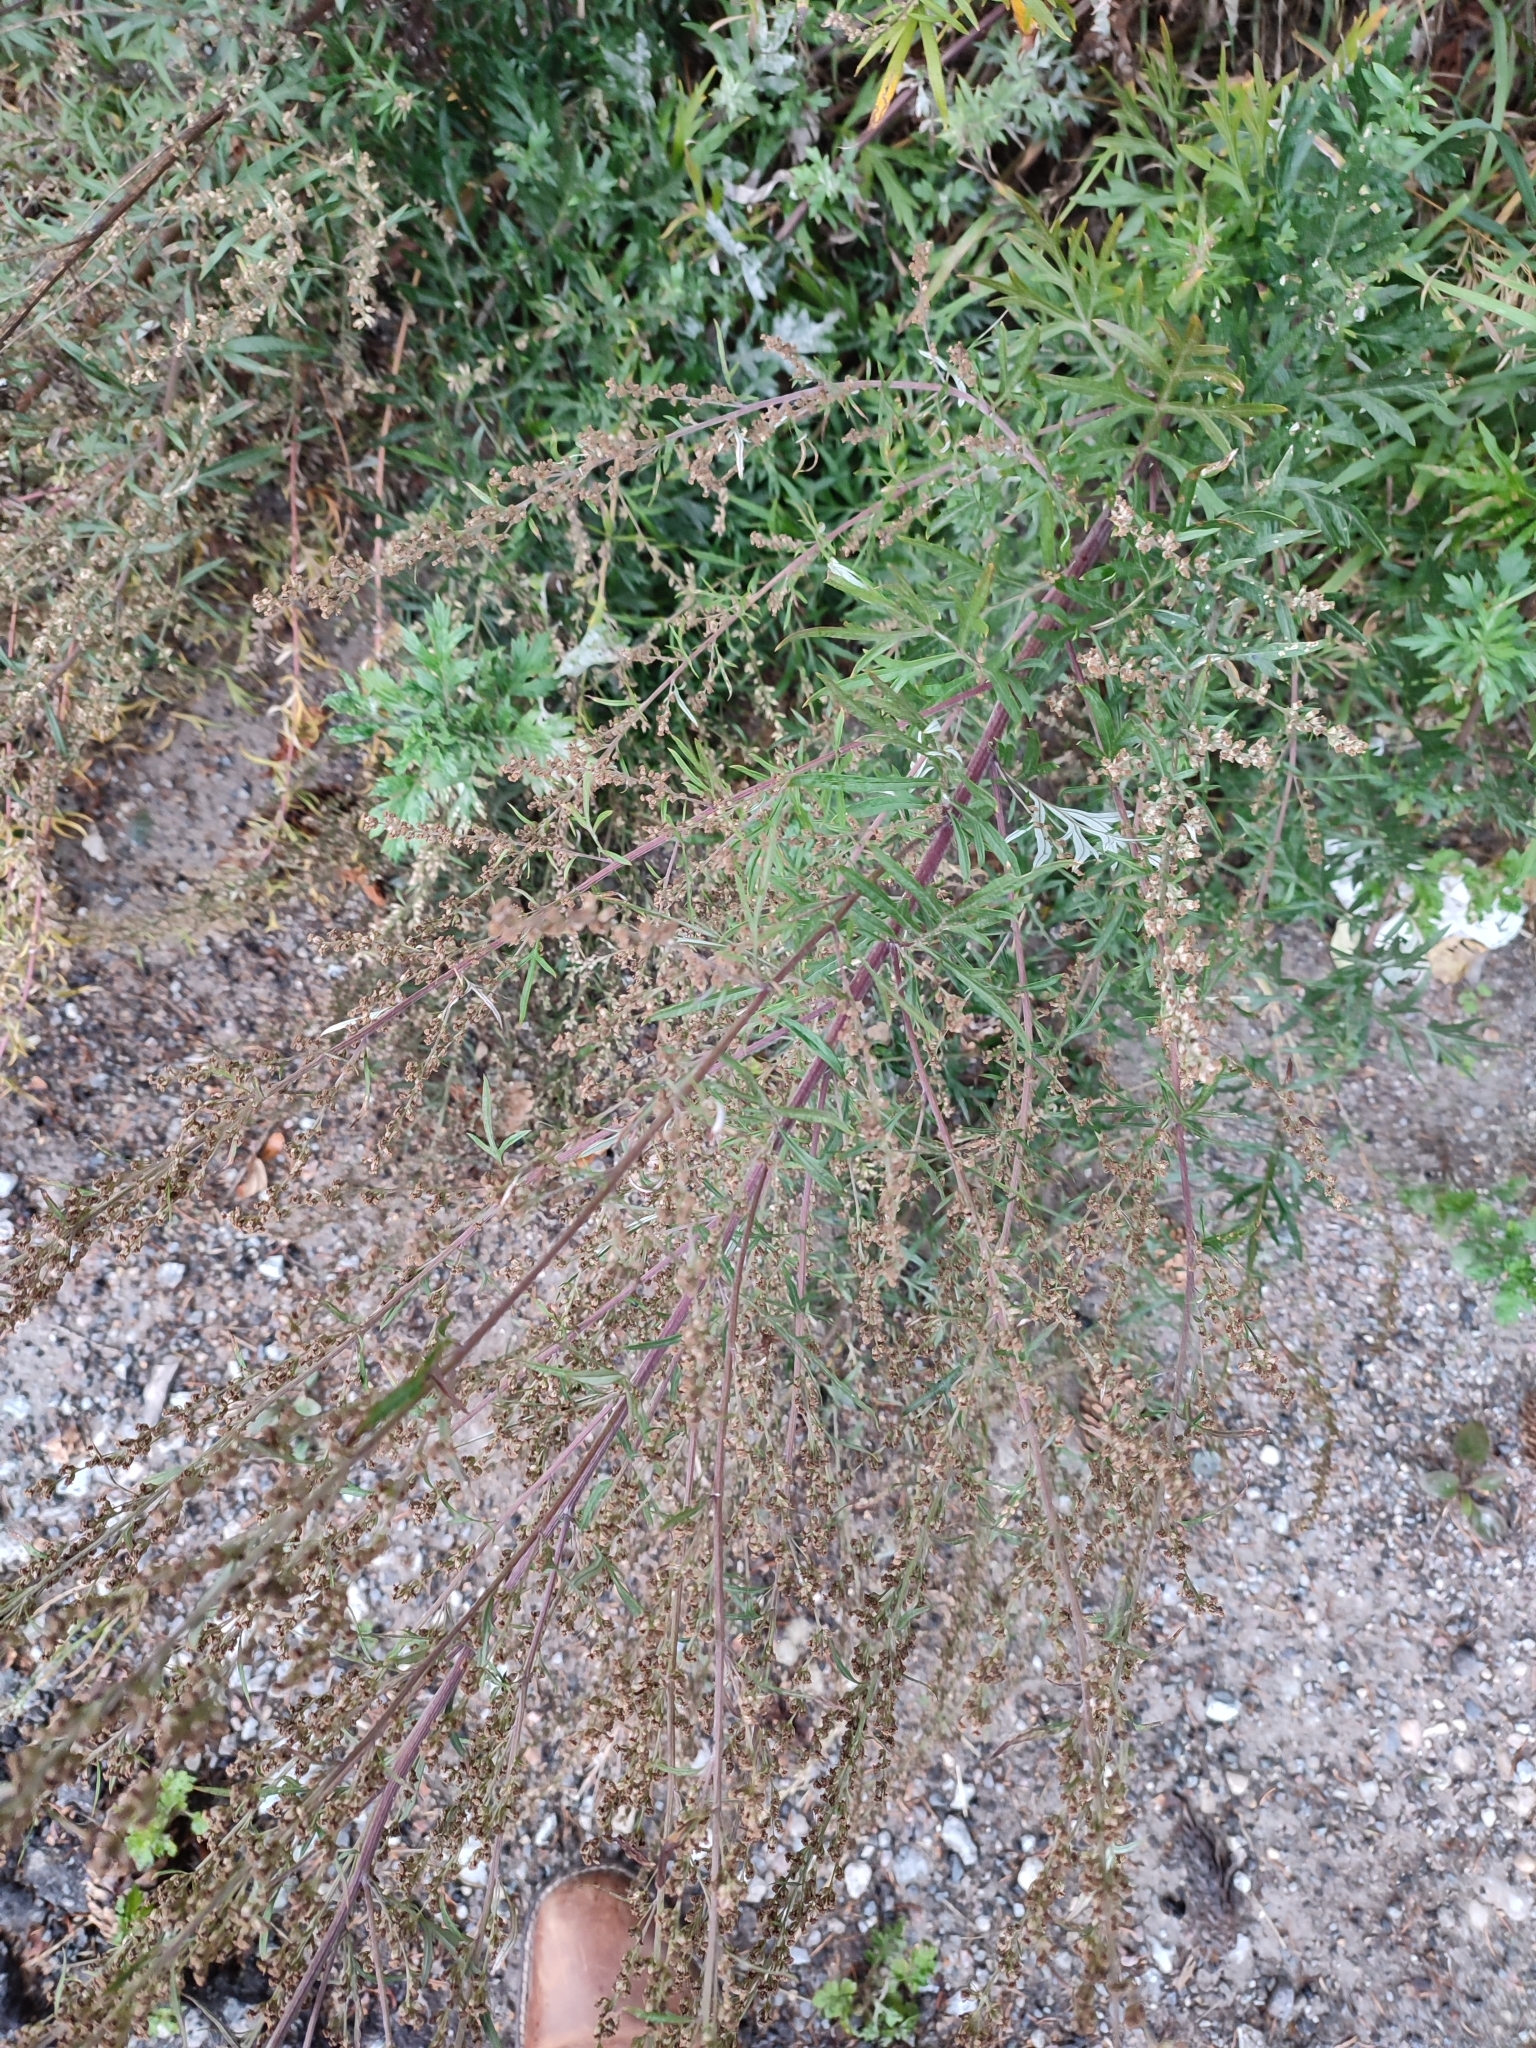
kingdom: Plantae
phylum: Tracheophyta
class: Magnoliopsida
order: Asterales
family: Asteraceae
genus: Artemisia
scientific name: Artemisia vulgaris
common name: Mugwort
